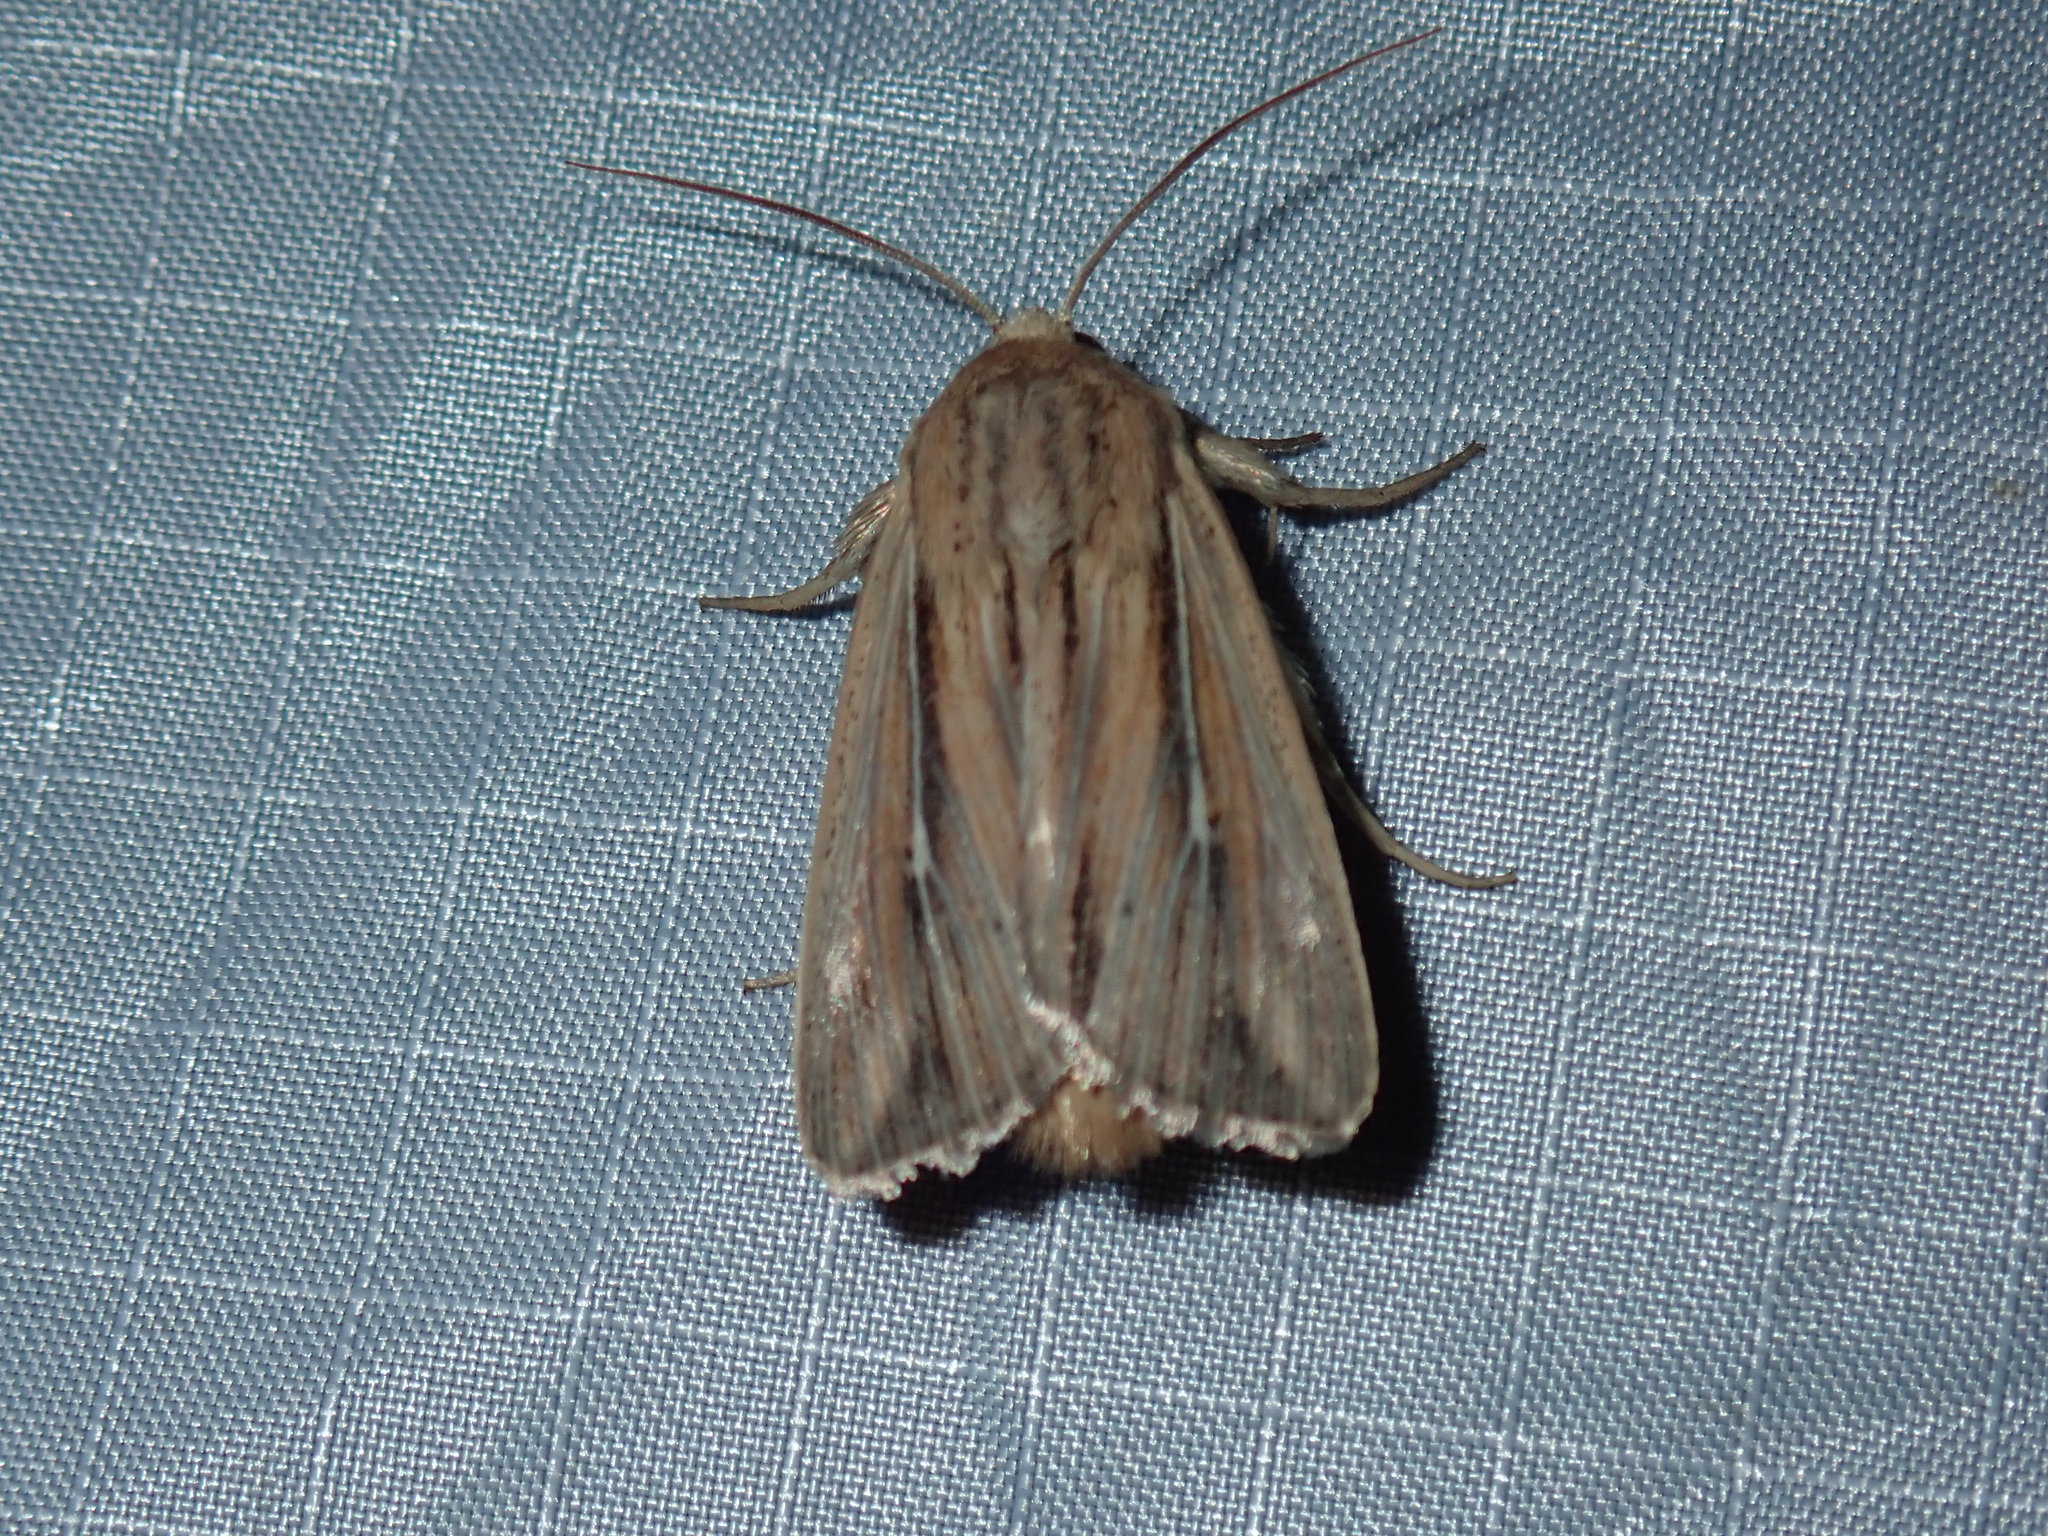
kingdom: Animalia
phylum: Arthropoda
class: Insecta
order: Lepidoptera
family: Noctuidae
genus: Leucania
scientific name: Leucania commoides
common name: Two-lined wainscot
